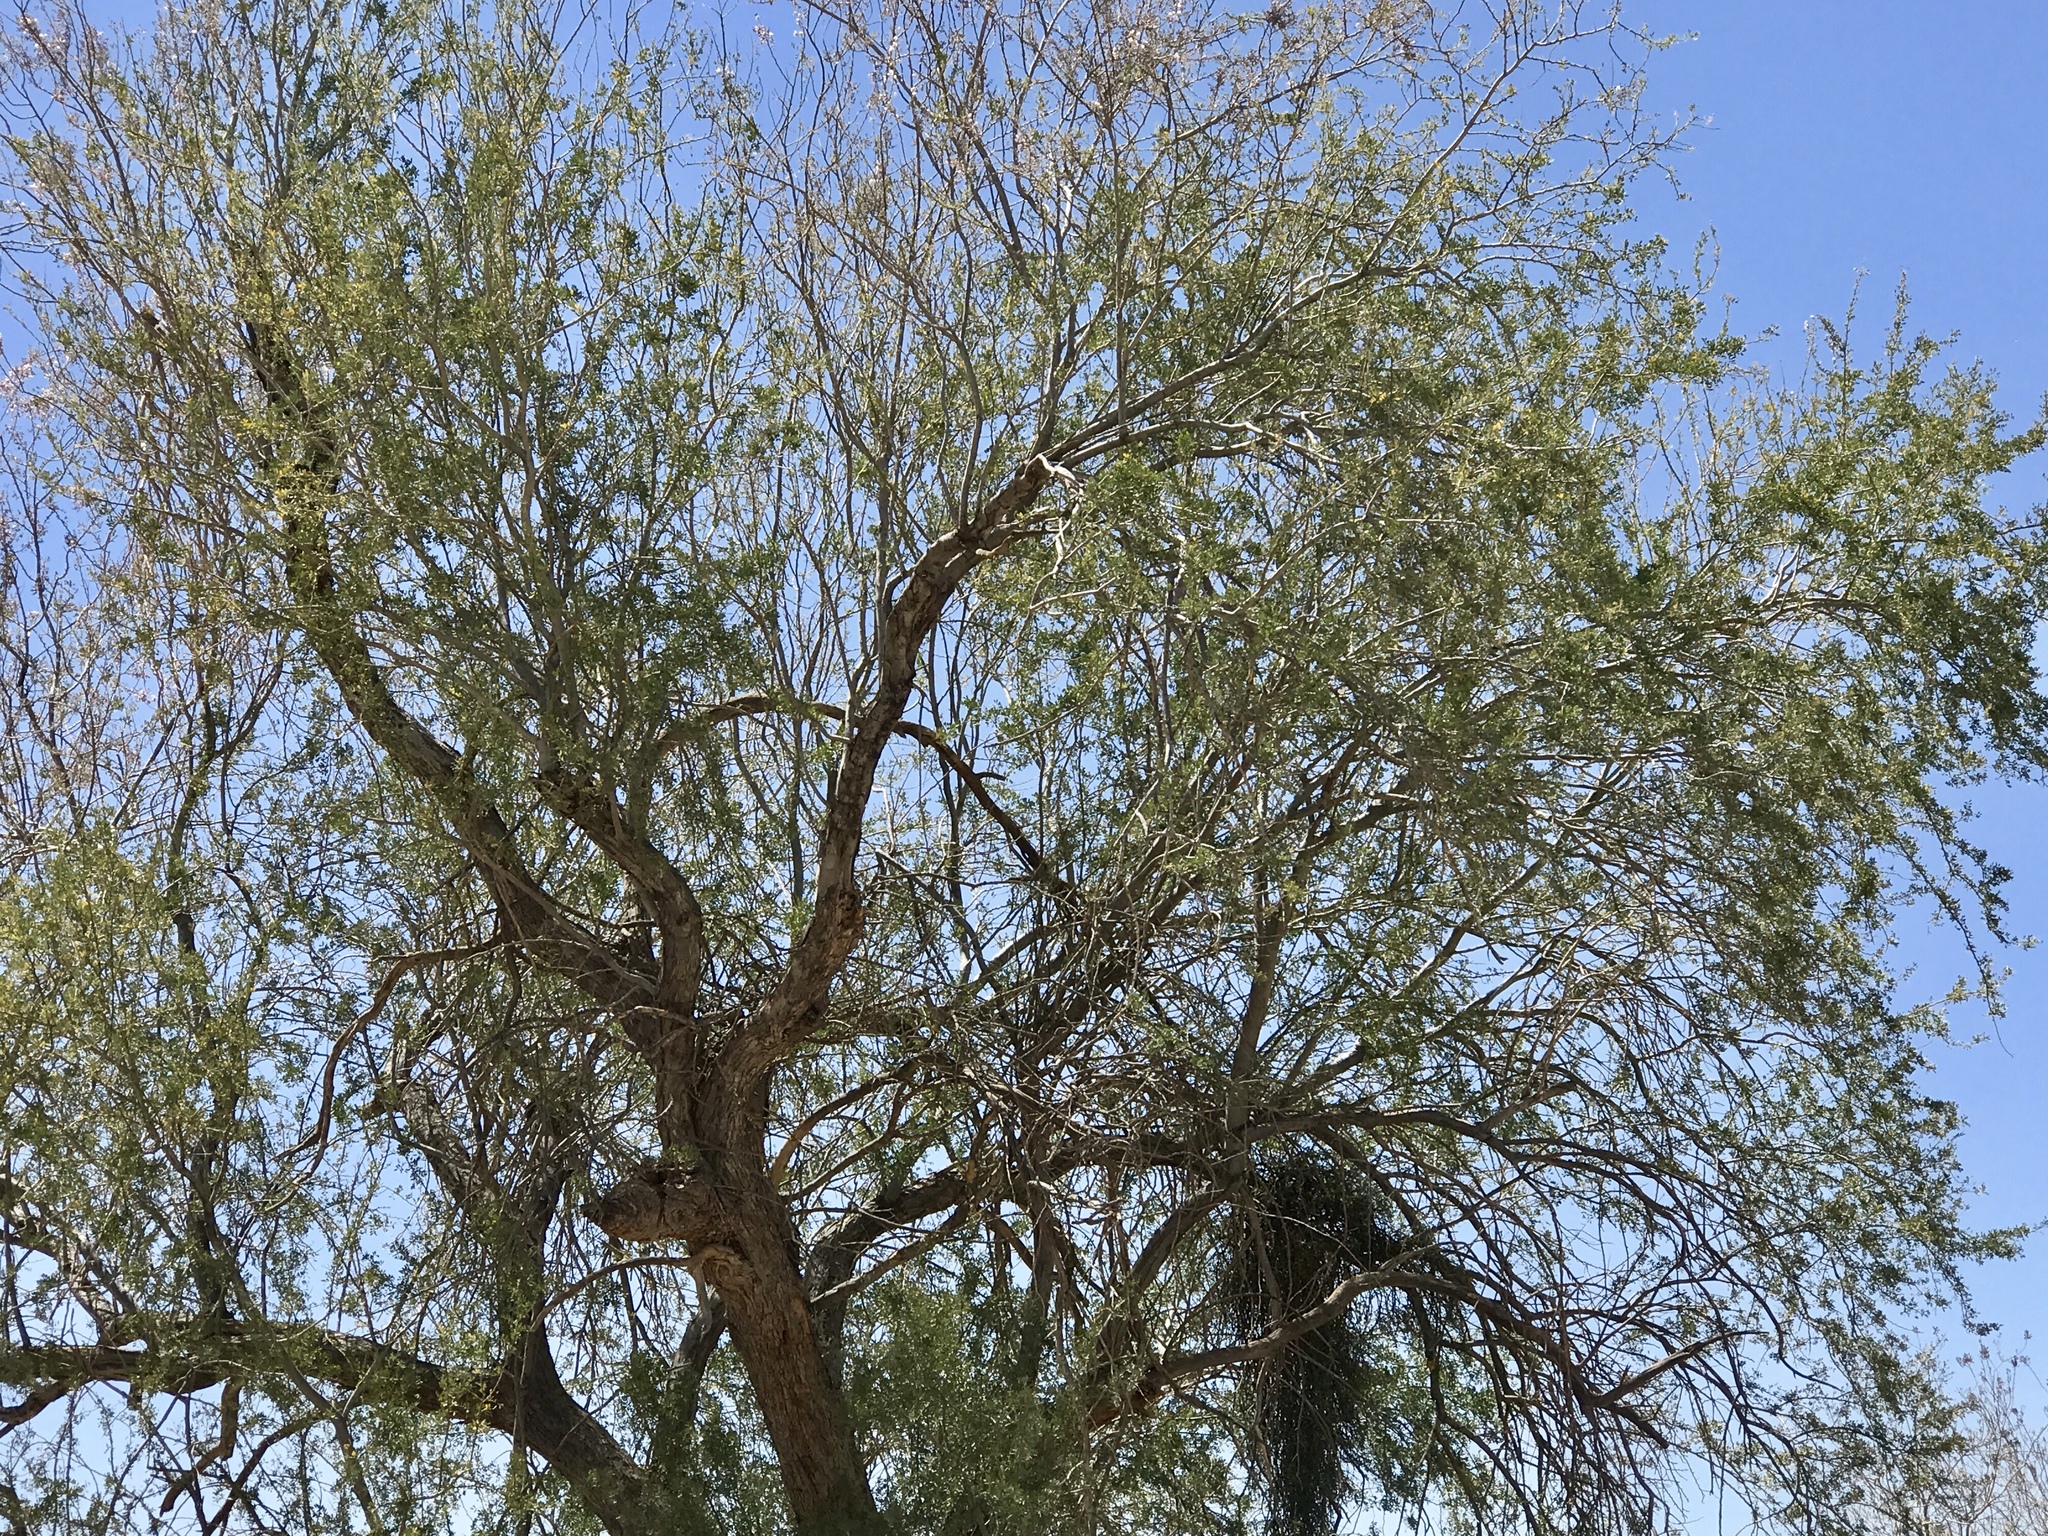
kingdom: Plantae
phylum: Tracheophyta
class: Magnoliopsida
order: Fabales
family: Fabaceae
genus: Olneya
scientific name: Olneya tesota
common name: Desert ironwood
